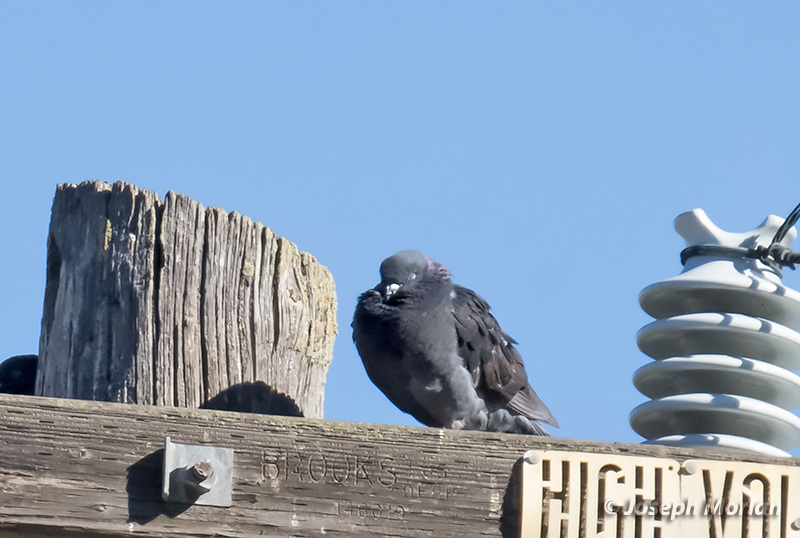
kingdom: Animalia
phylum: Chordata
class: Aves
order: Columbiformes
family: Columbidae
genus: Columba
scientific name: Columba livia
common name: Rock pigeon
